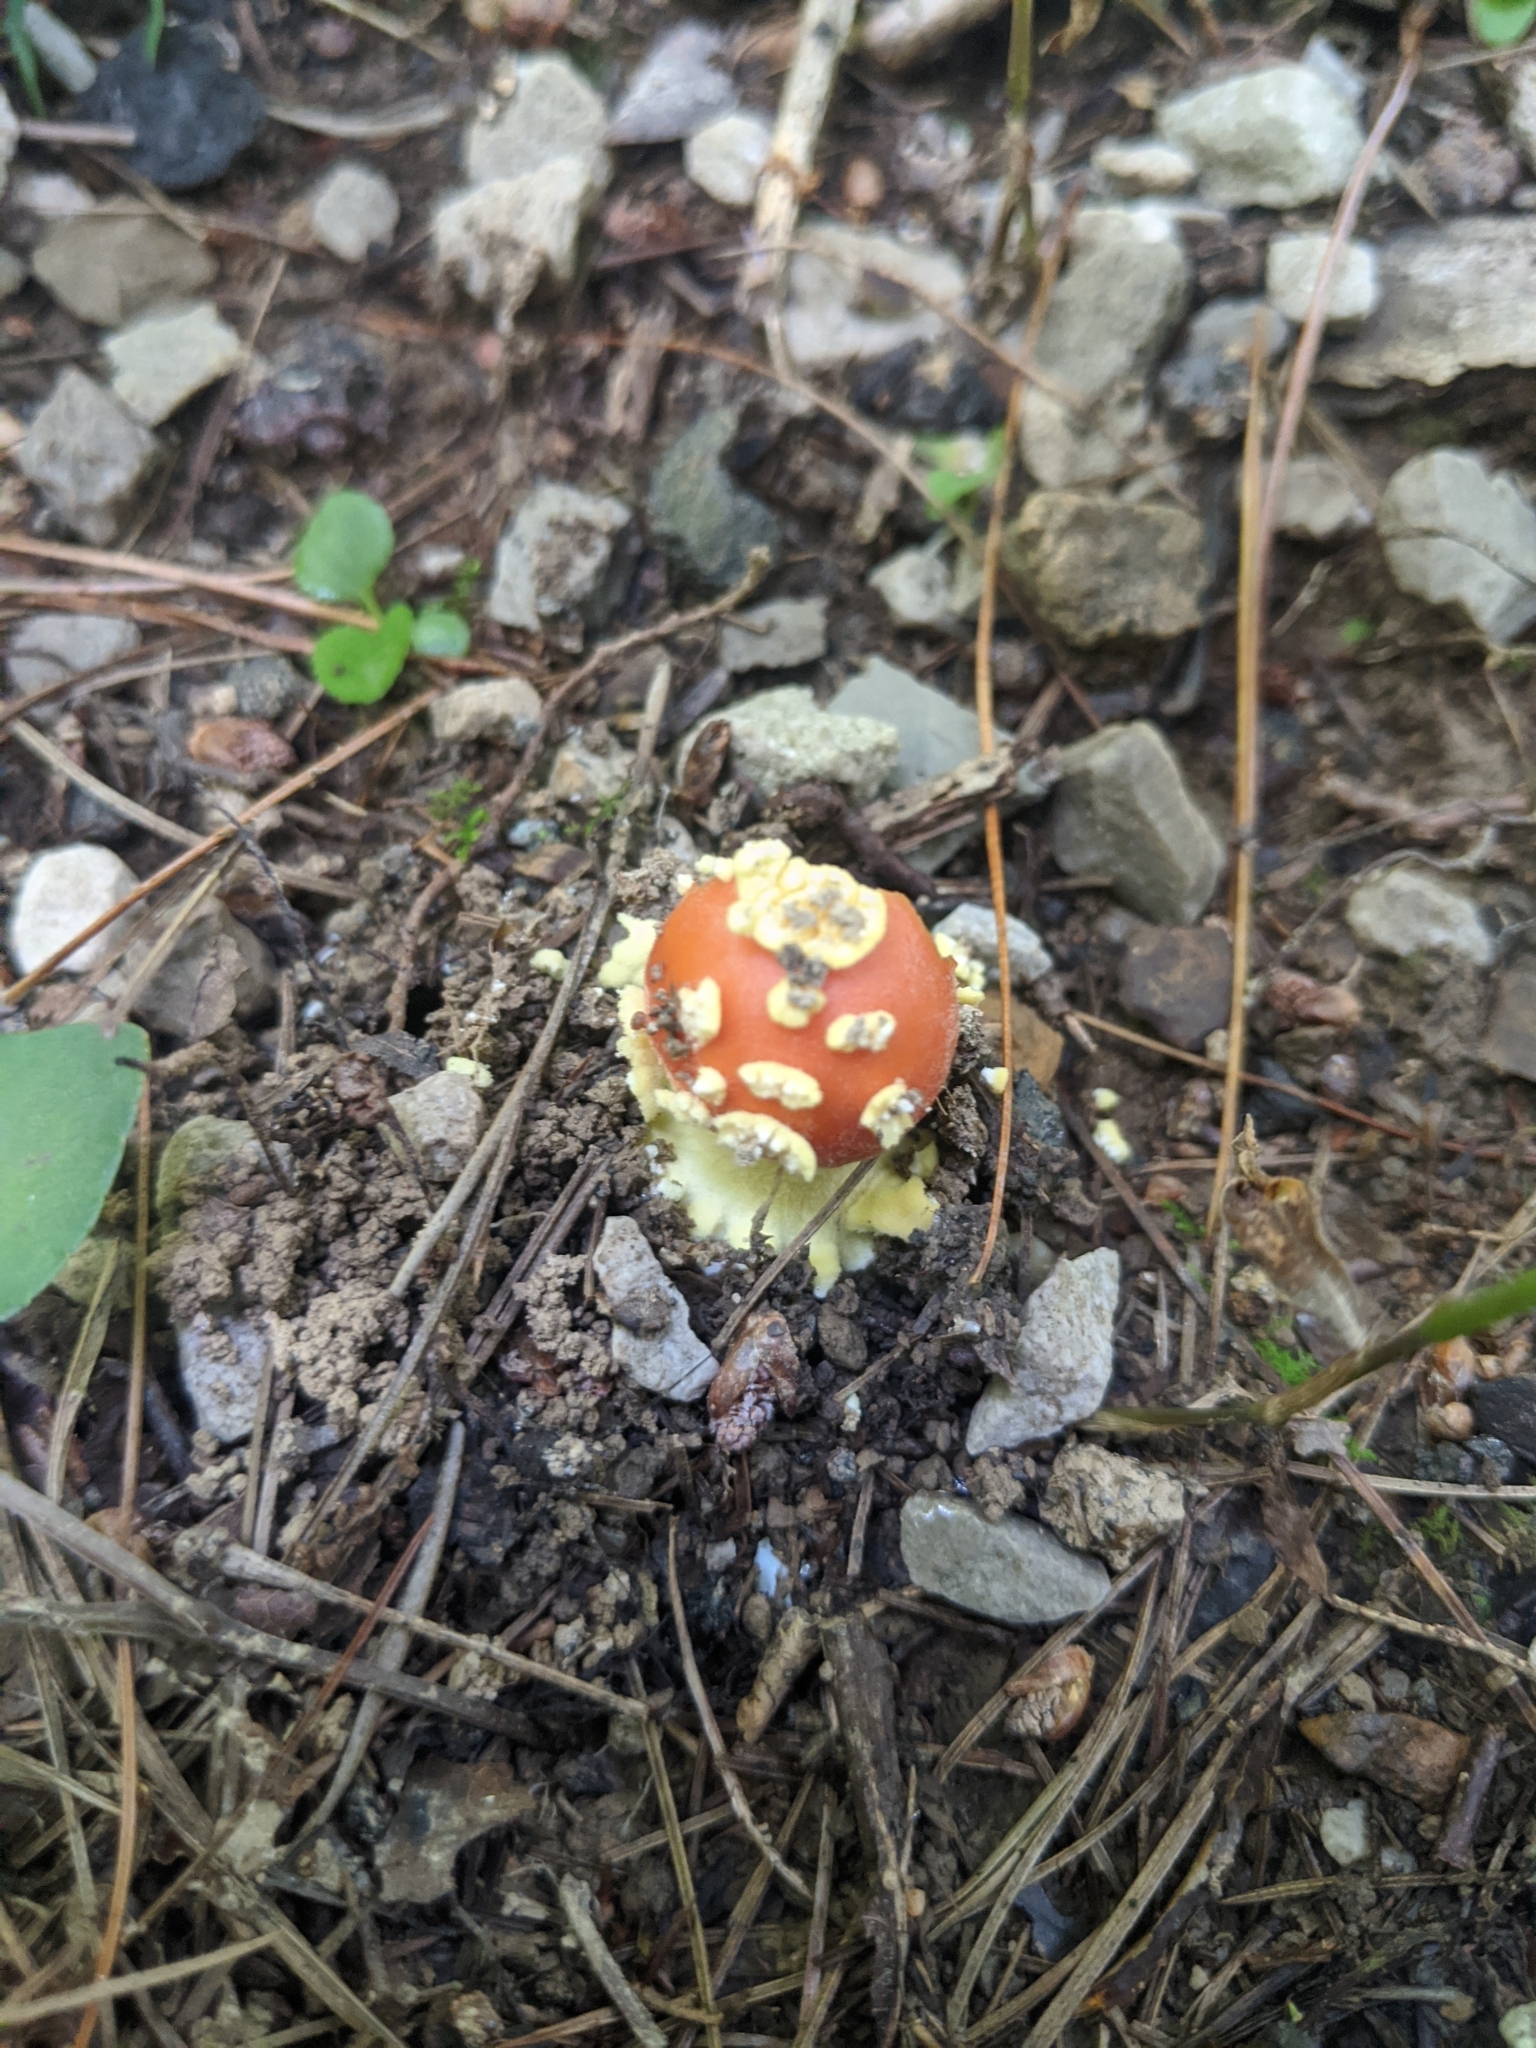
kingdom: Fungi
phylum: Basidiomycota
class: Agaricomycetes
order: Agaricales
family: Amanitaceae
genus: Amanita
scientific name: Amanita parcivolvata
